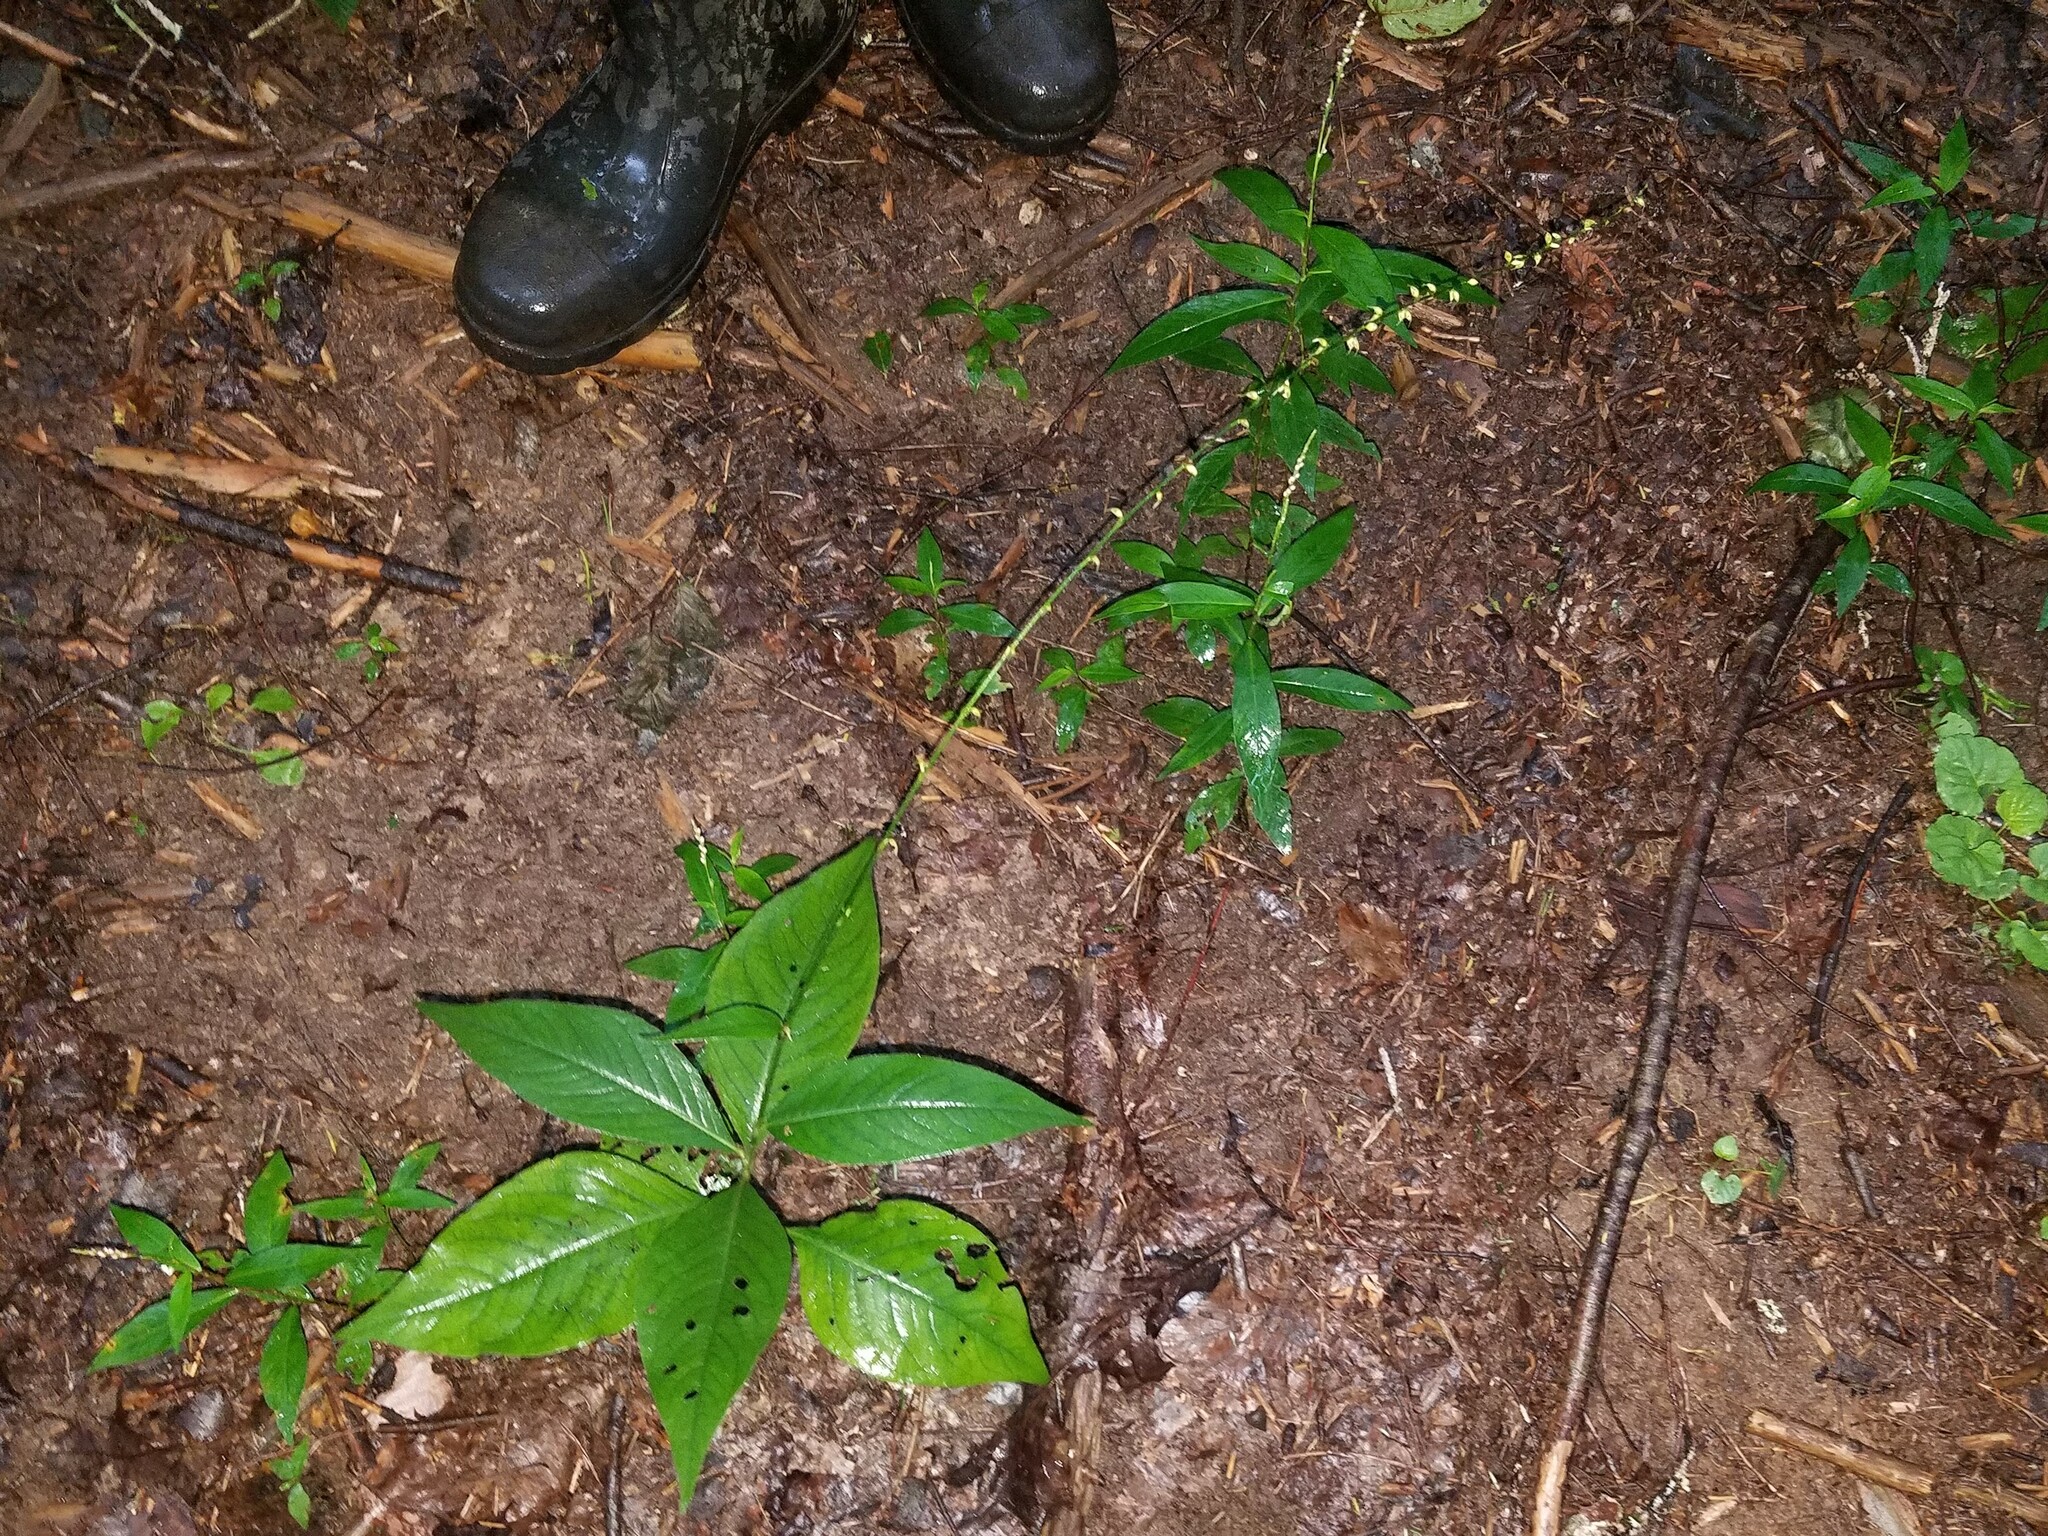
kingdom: Plantae
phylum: Tracheophyta
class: Magnoliopsida
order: Caryophyllales
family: Polygonaceae
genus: Persicaria
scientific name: Persicaria virginiana
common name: Jumpseed
